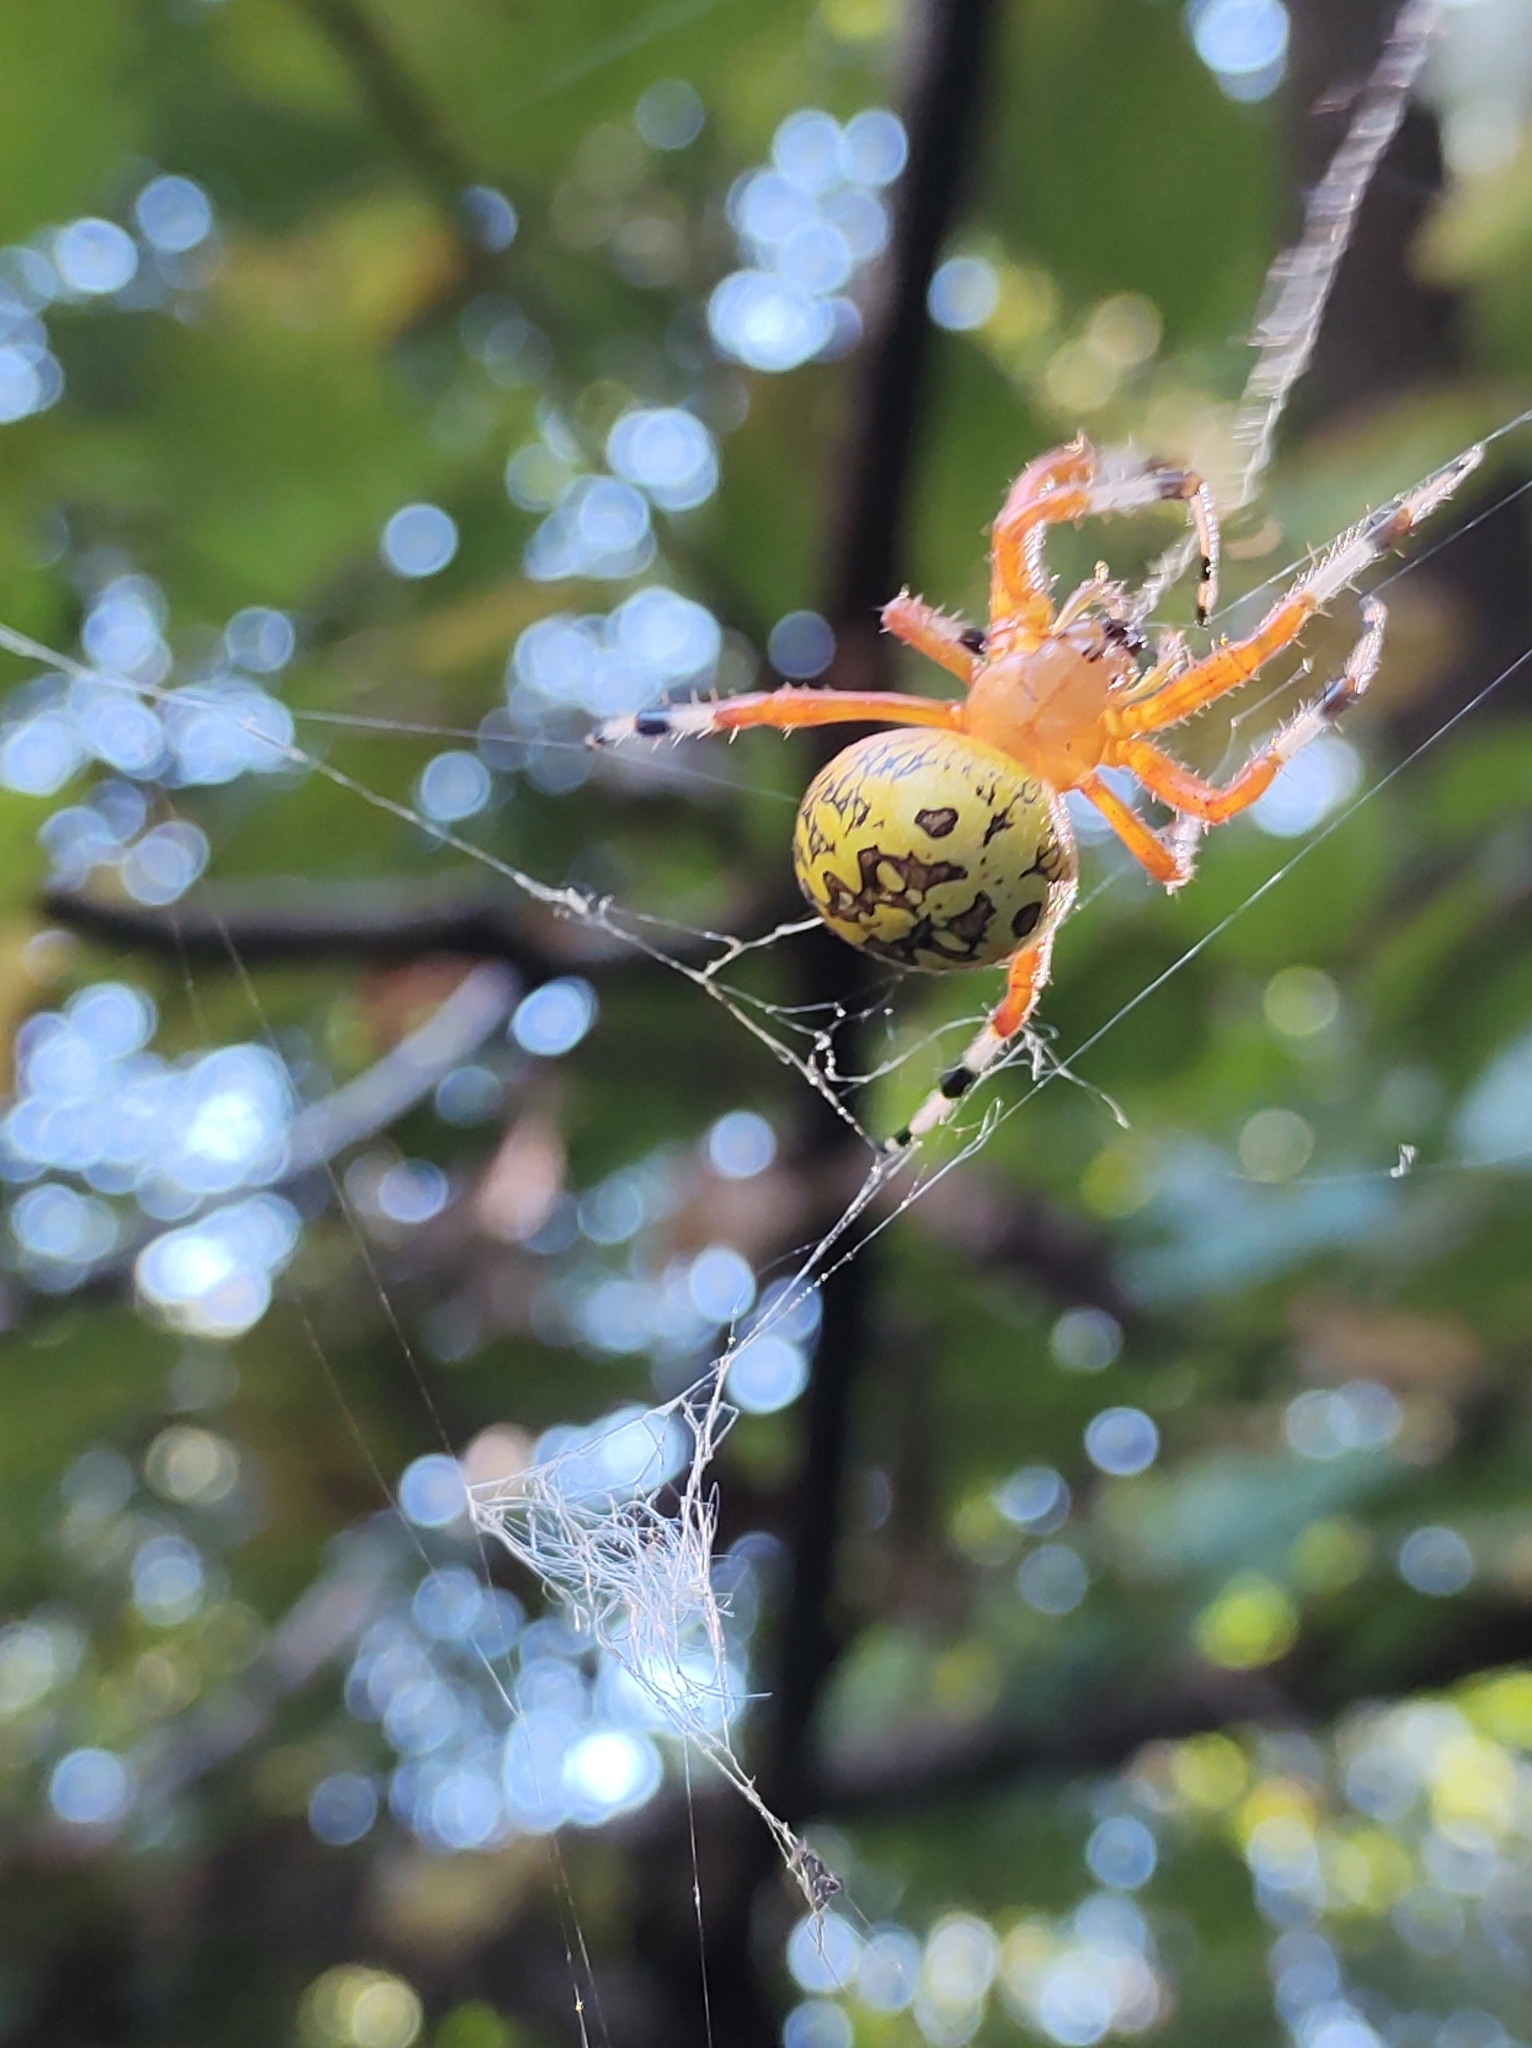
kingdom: Animalia
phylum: Arthropoda
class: Arachnida
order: Araneae
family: Araneidae
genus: Araneus
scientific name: Araneus marmoreus
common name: Marbled orbweaver
